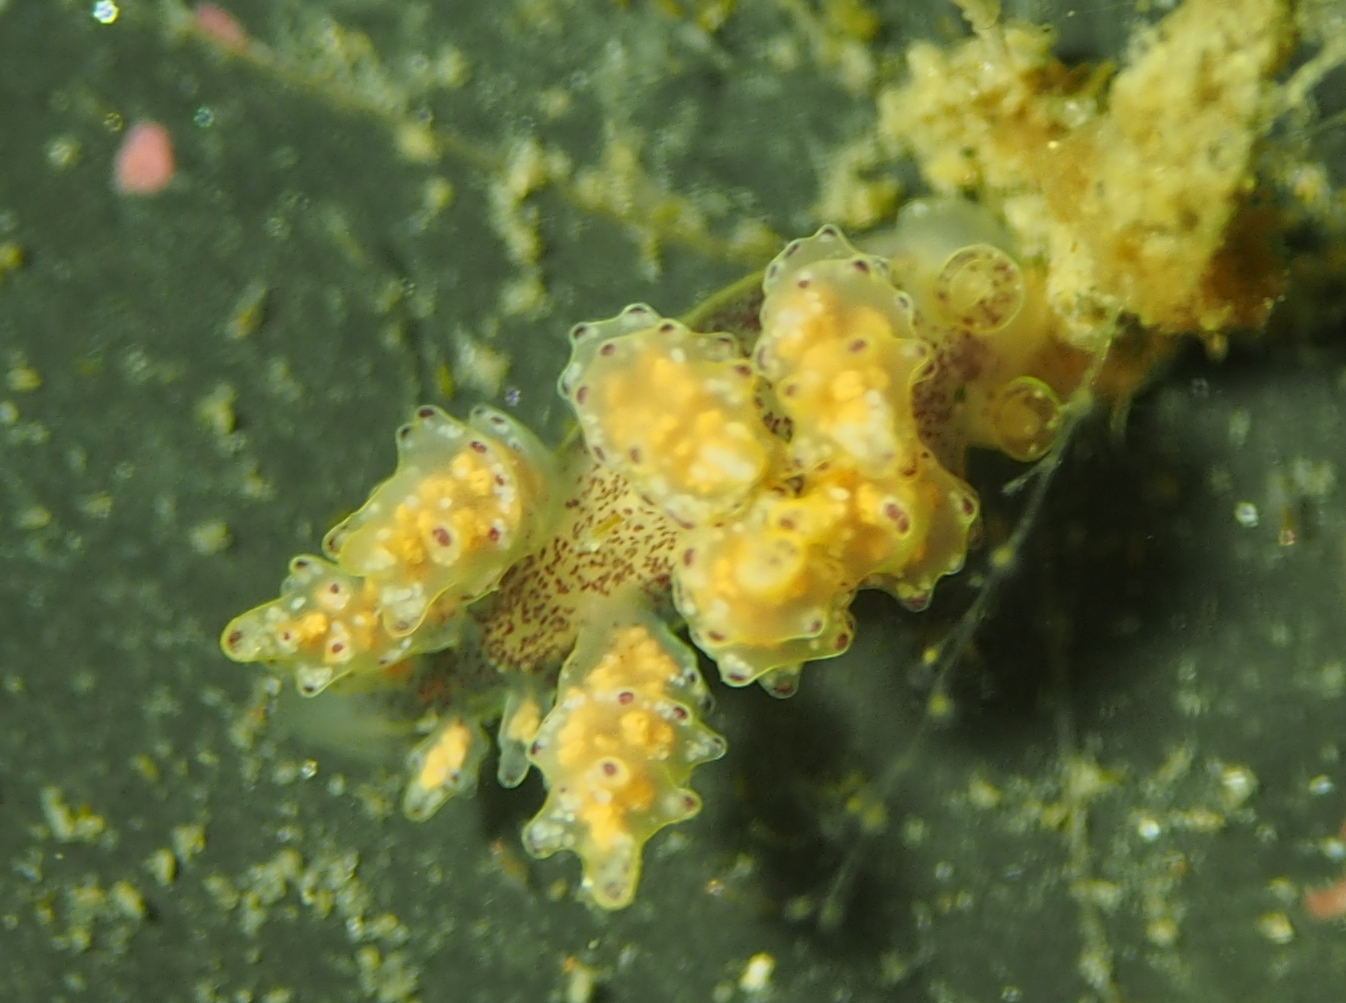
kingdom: Animalia
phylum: Mollusca
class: Gastropoda
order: Nudibranchia
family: Dotidae
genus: Doto
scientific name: Doto maculata
